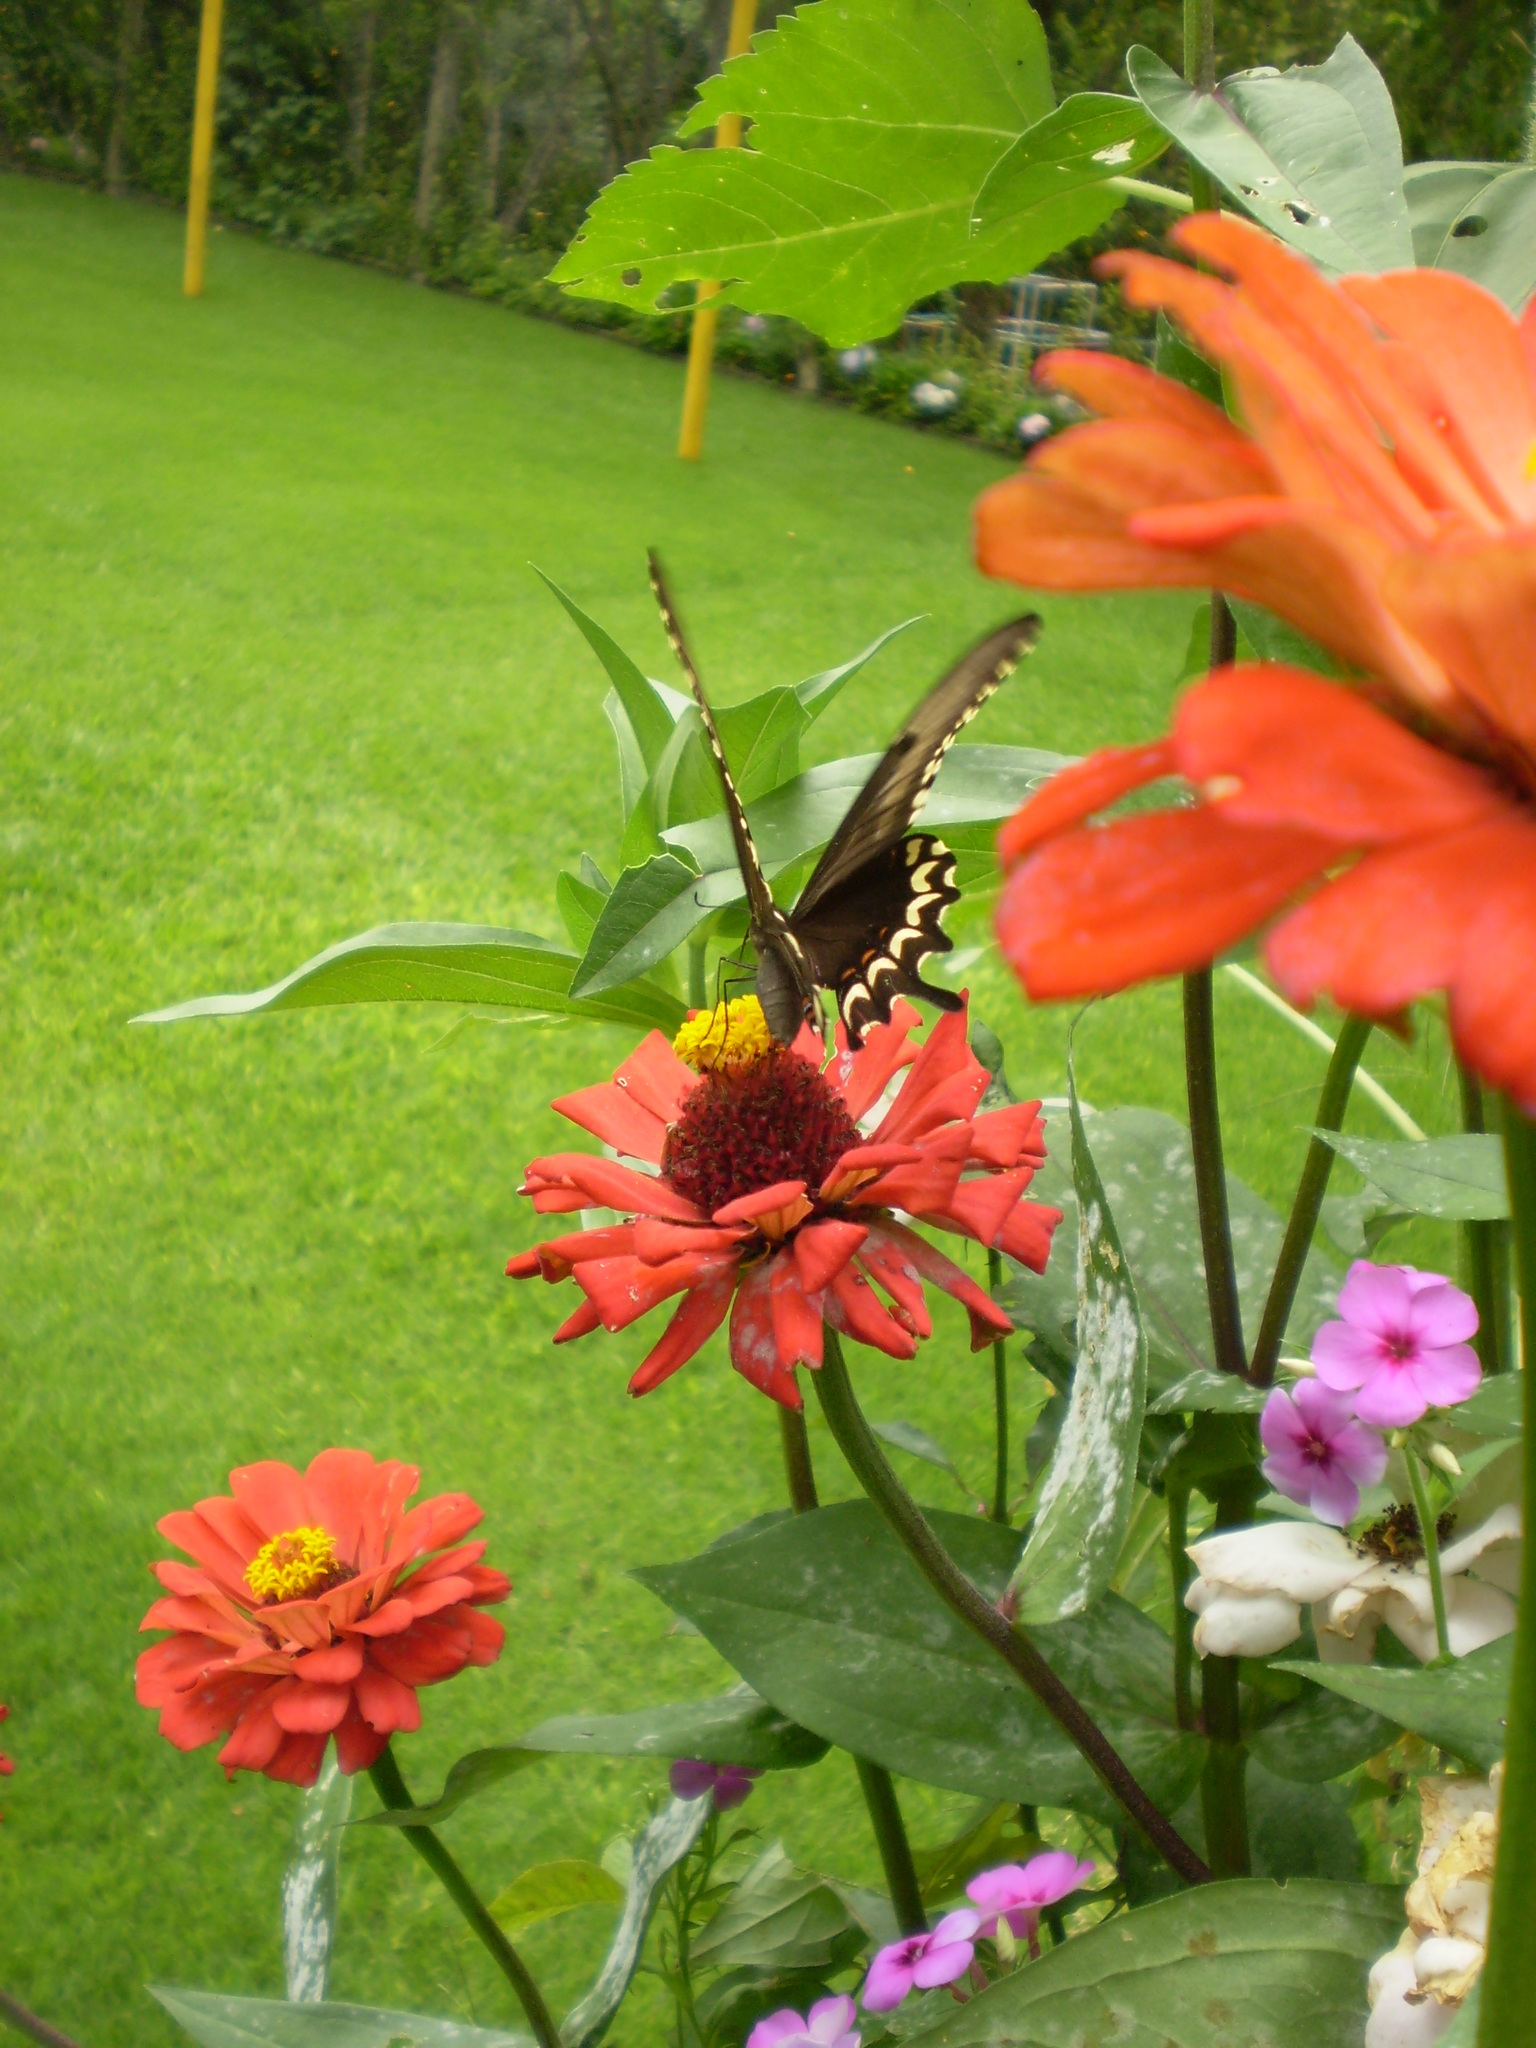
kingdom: Animalia
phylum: Arthropoda
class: Insecta
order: Lepidoptera
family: Papilionidae
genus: Papilio
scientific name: Papilio astyalus
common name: Astyalus swallowtail
